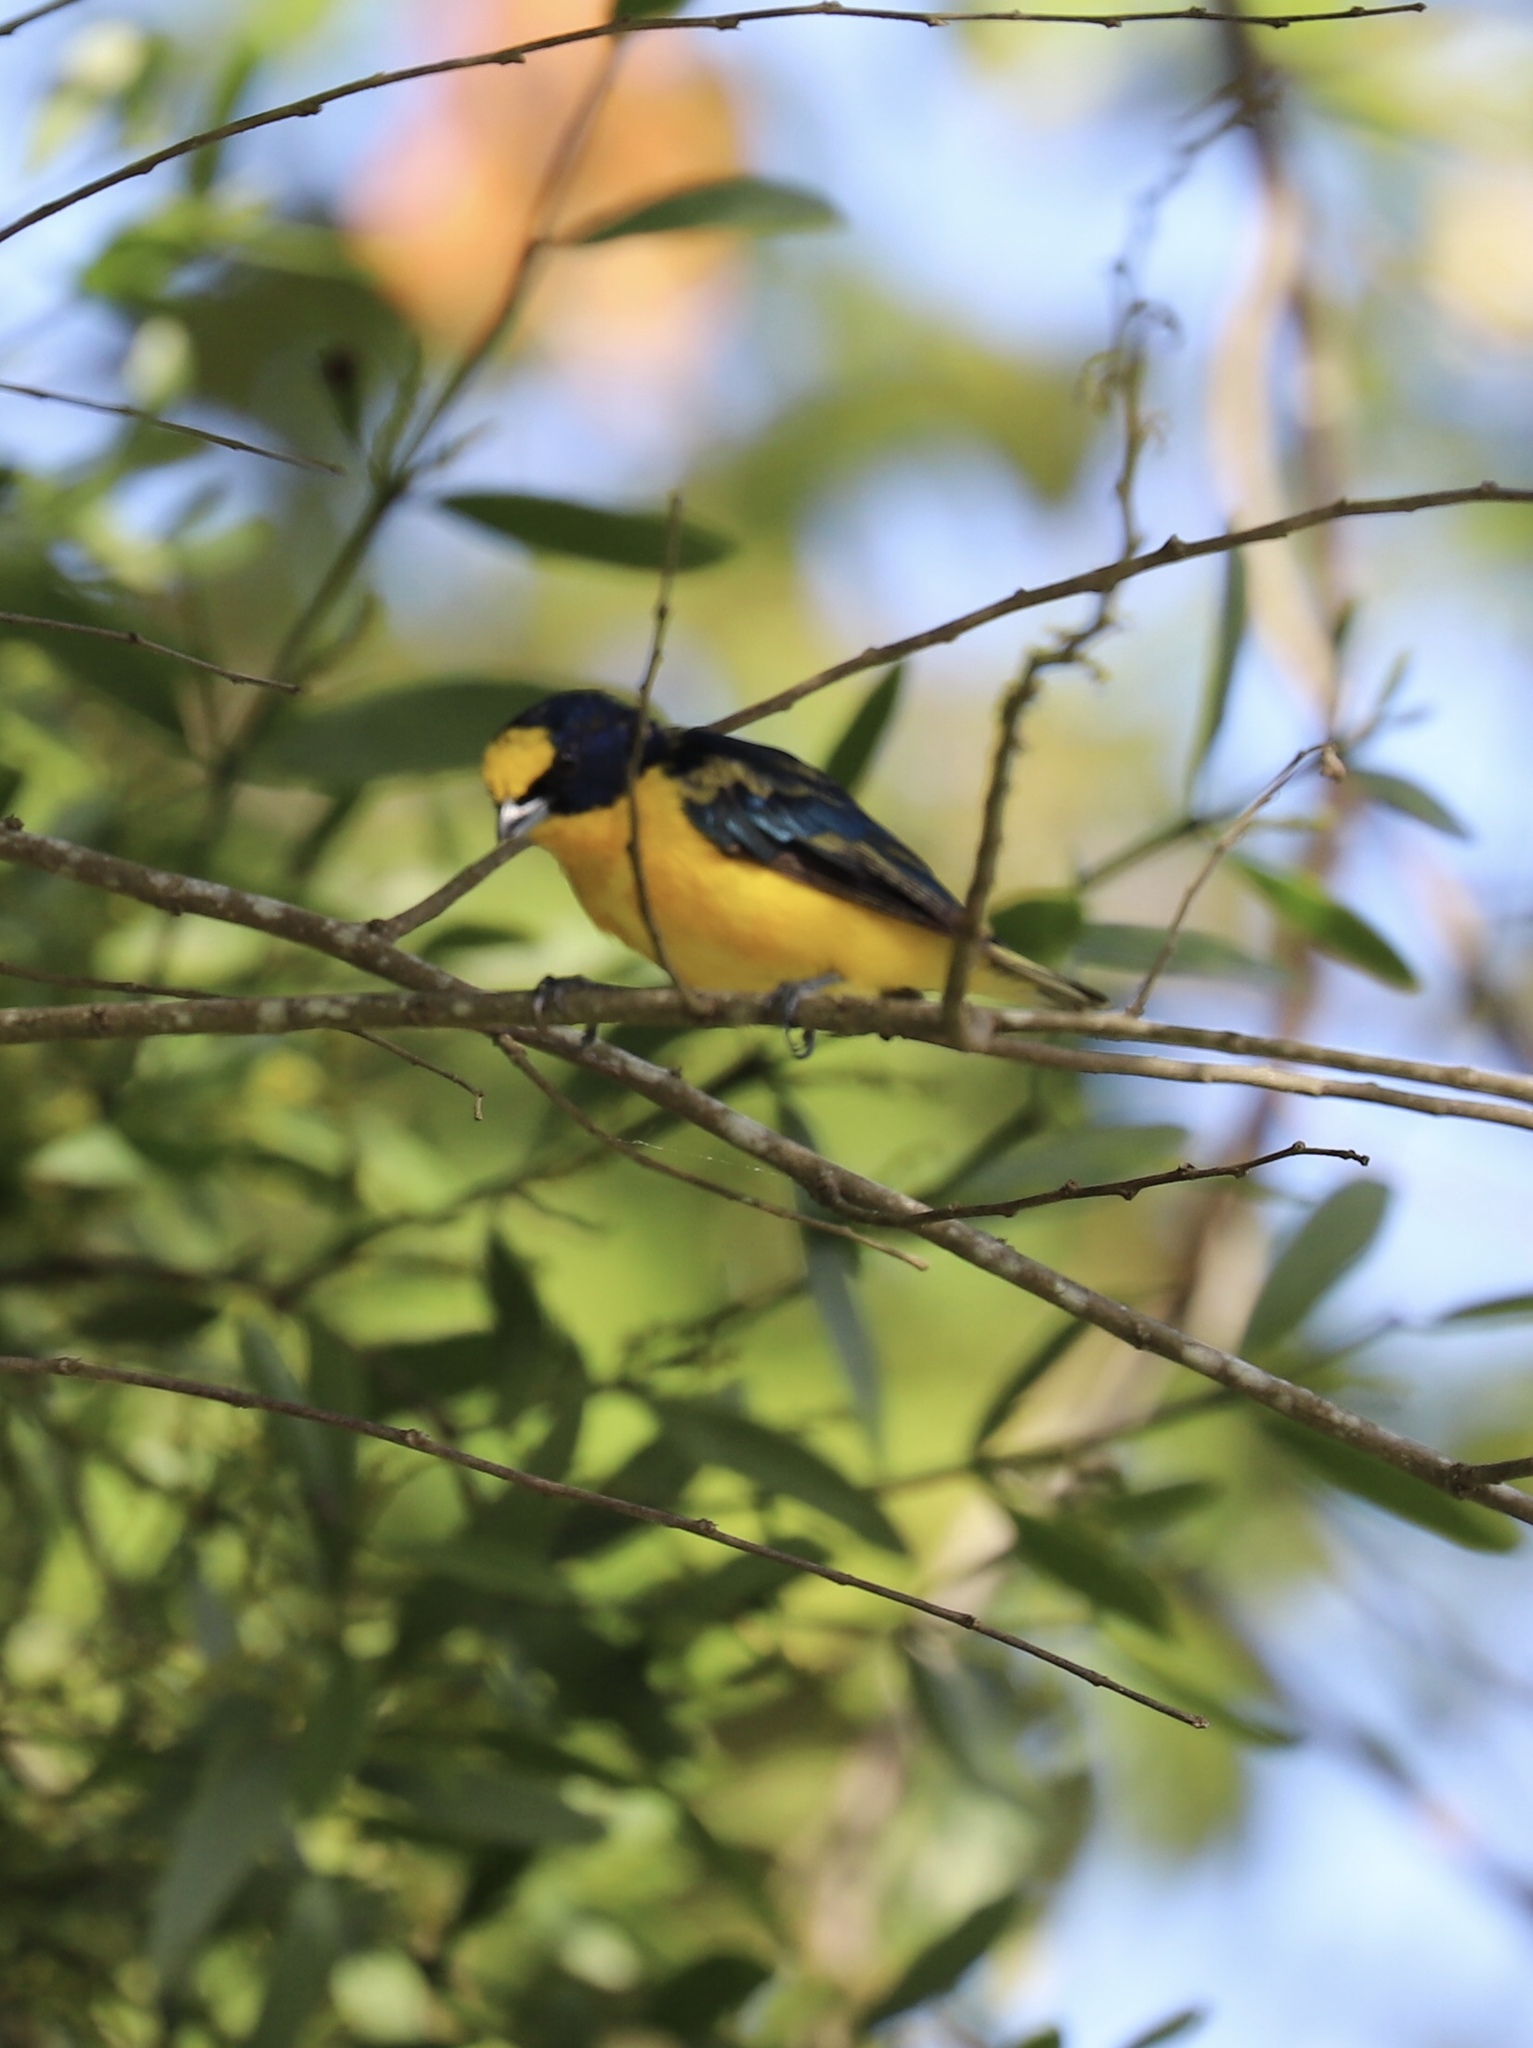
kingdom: Animalia
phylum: Chordata
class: Aves
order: Passeriformes
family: Fringillidae
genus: Euphonia
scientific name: Euphonia laniirostris
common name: Thick-billed euphonia
